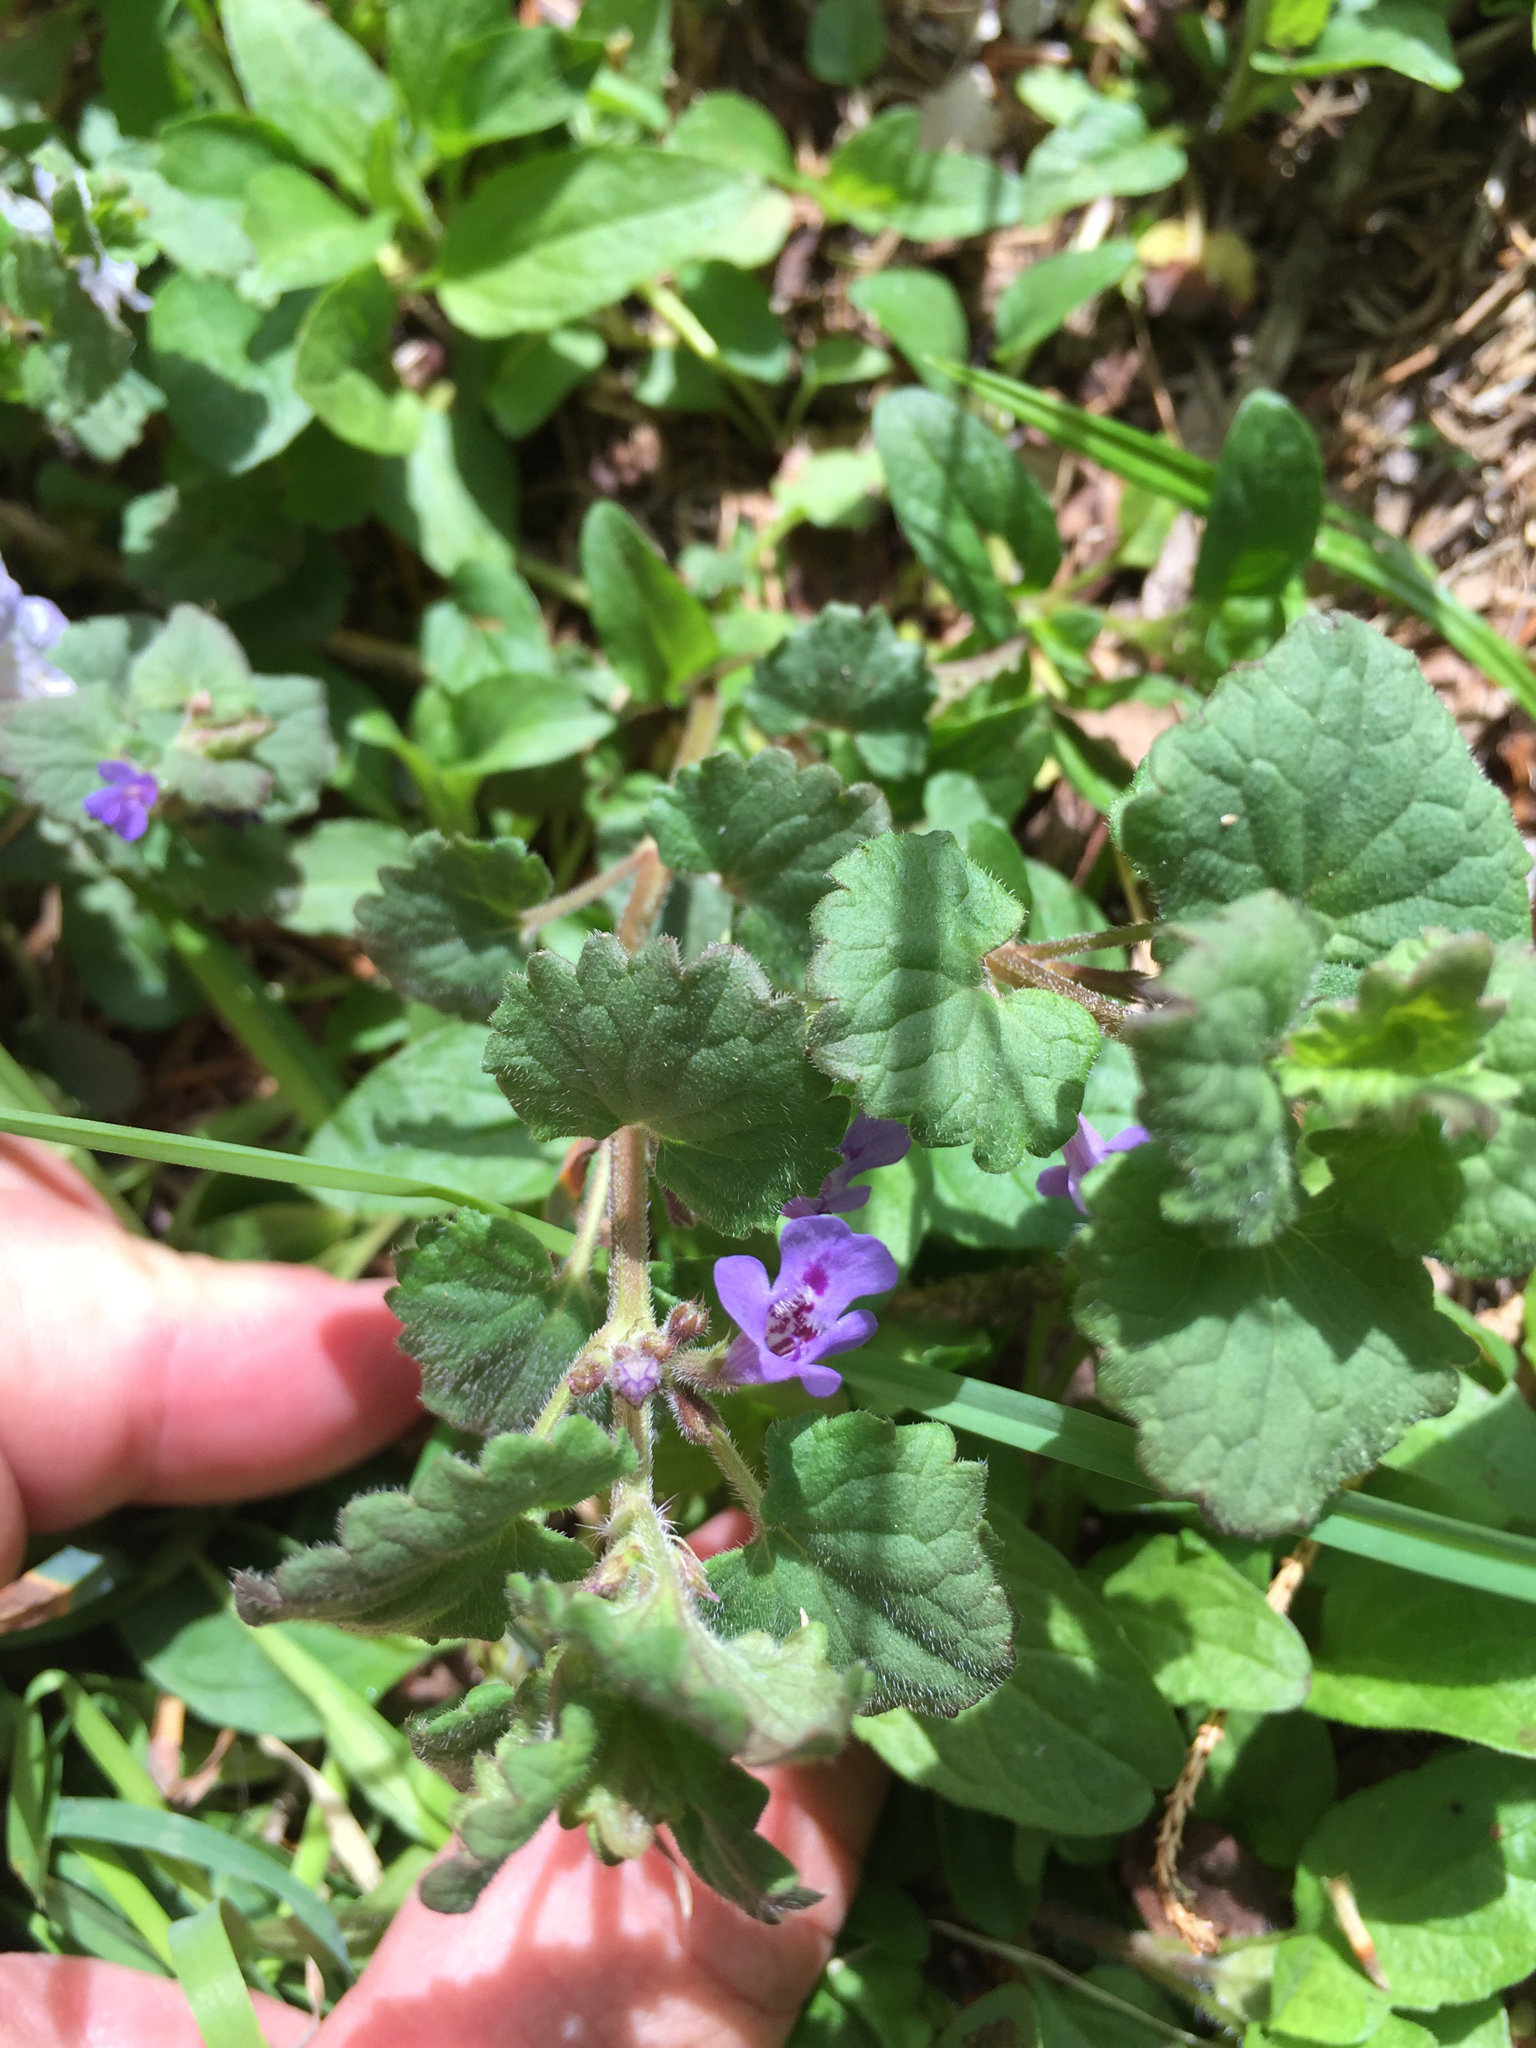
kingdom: Plantae
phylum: Tracheophyta
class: Magnoliopsida
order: Lamiales
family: Lamiaceae
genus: Glechoma
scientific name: Glechoma hederacea
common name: Ground ivy
